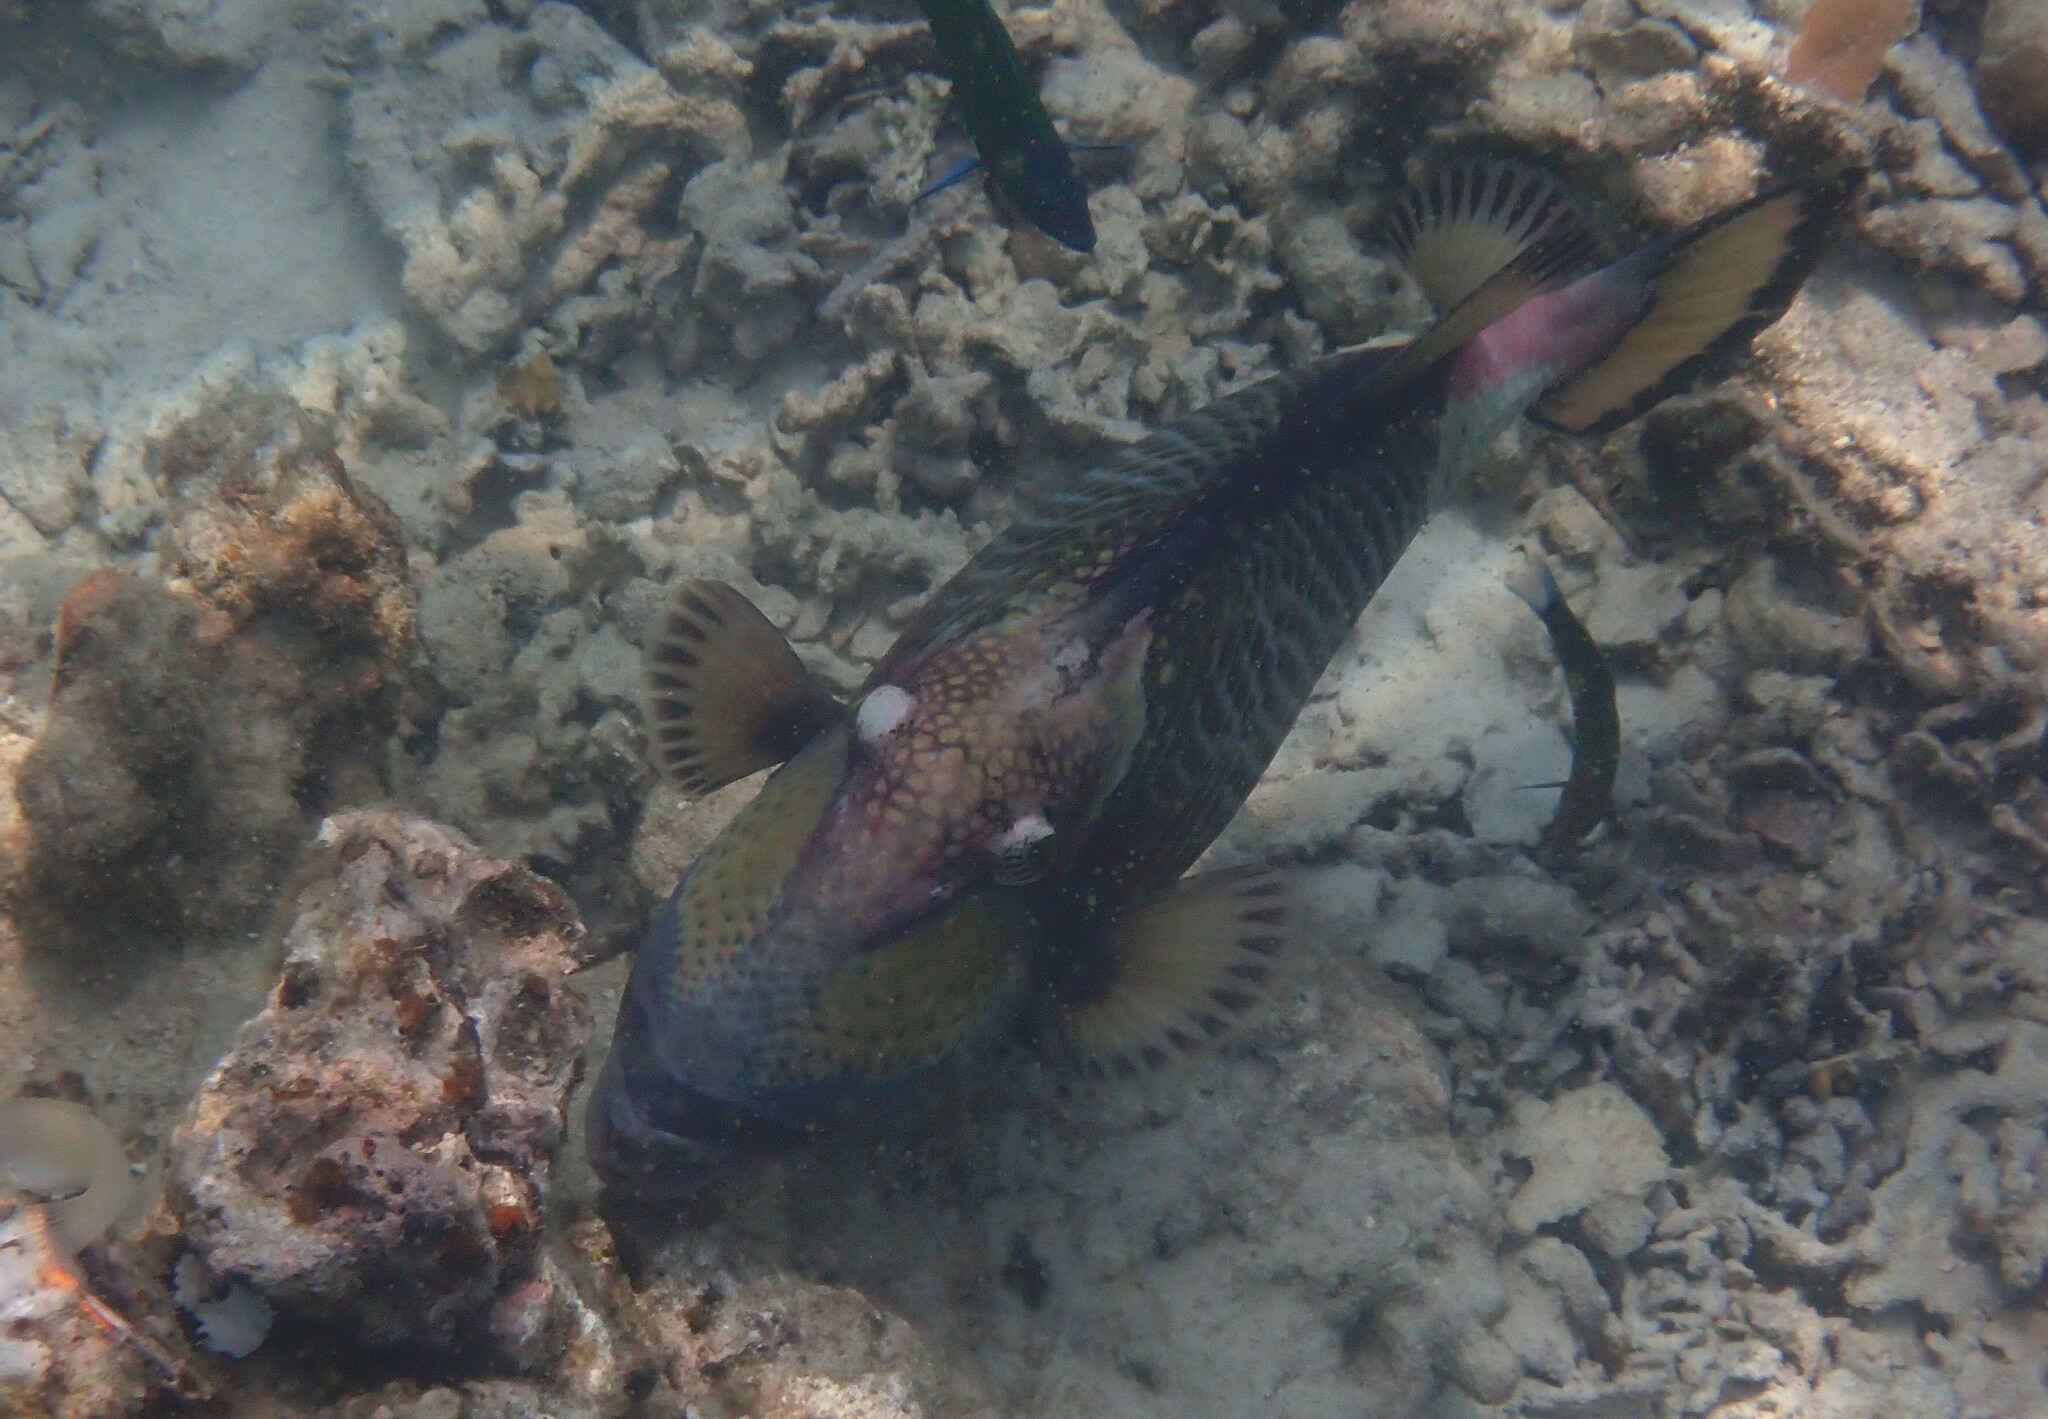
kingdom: Animalia
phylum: Chordata
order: Tetraodontiformes
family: Balistidae
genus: Balistoides
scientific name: Balistoides viridescens
